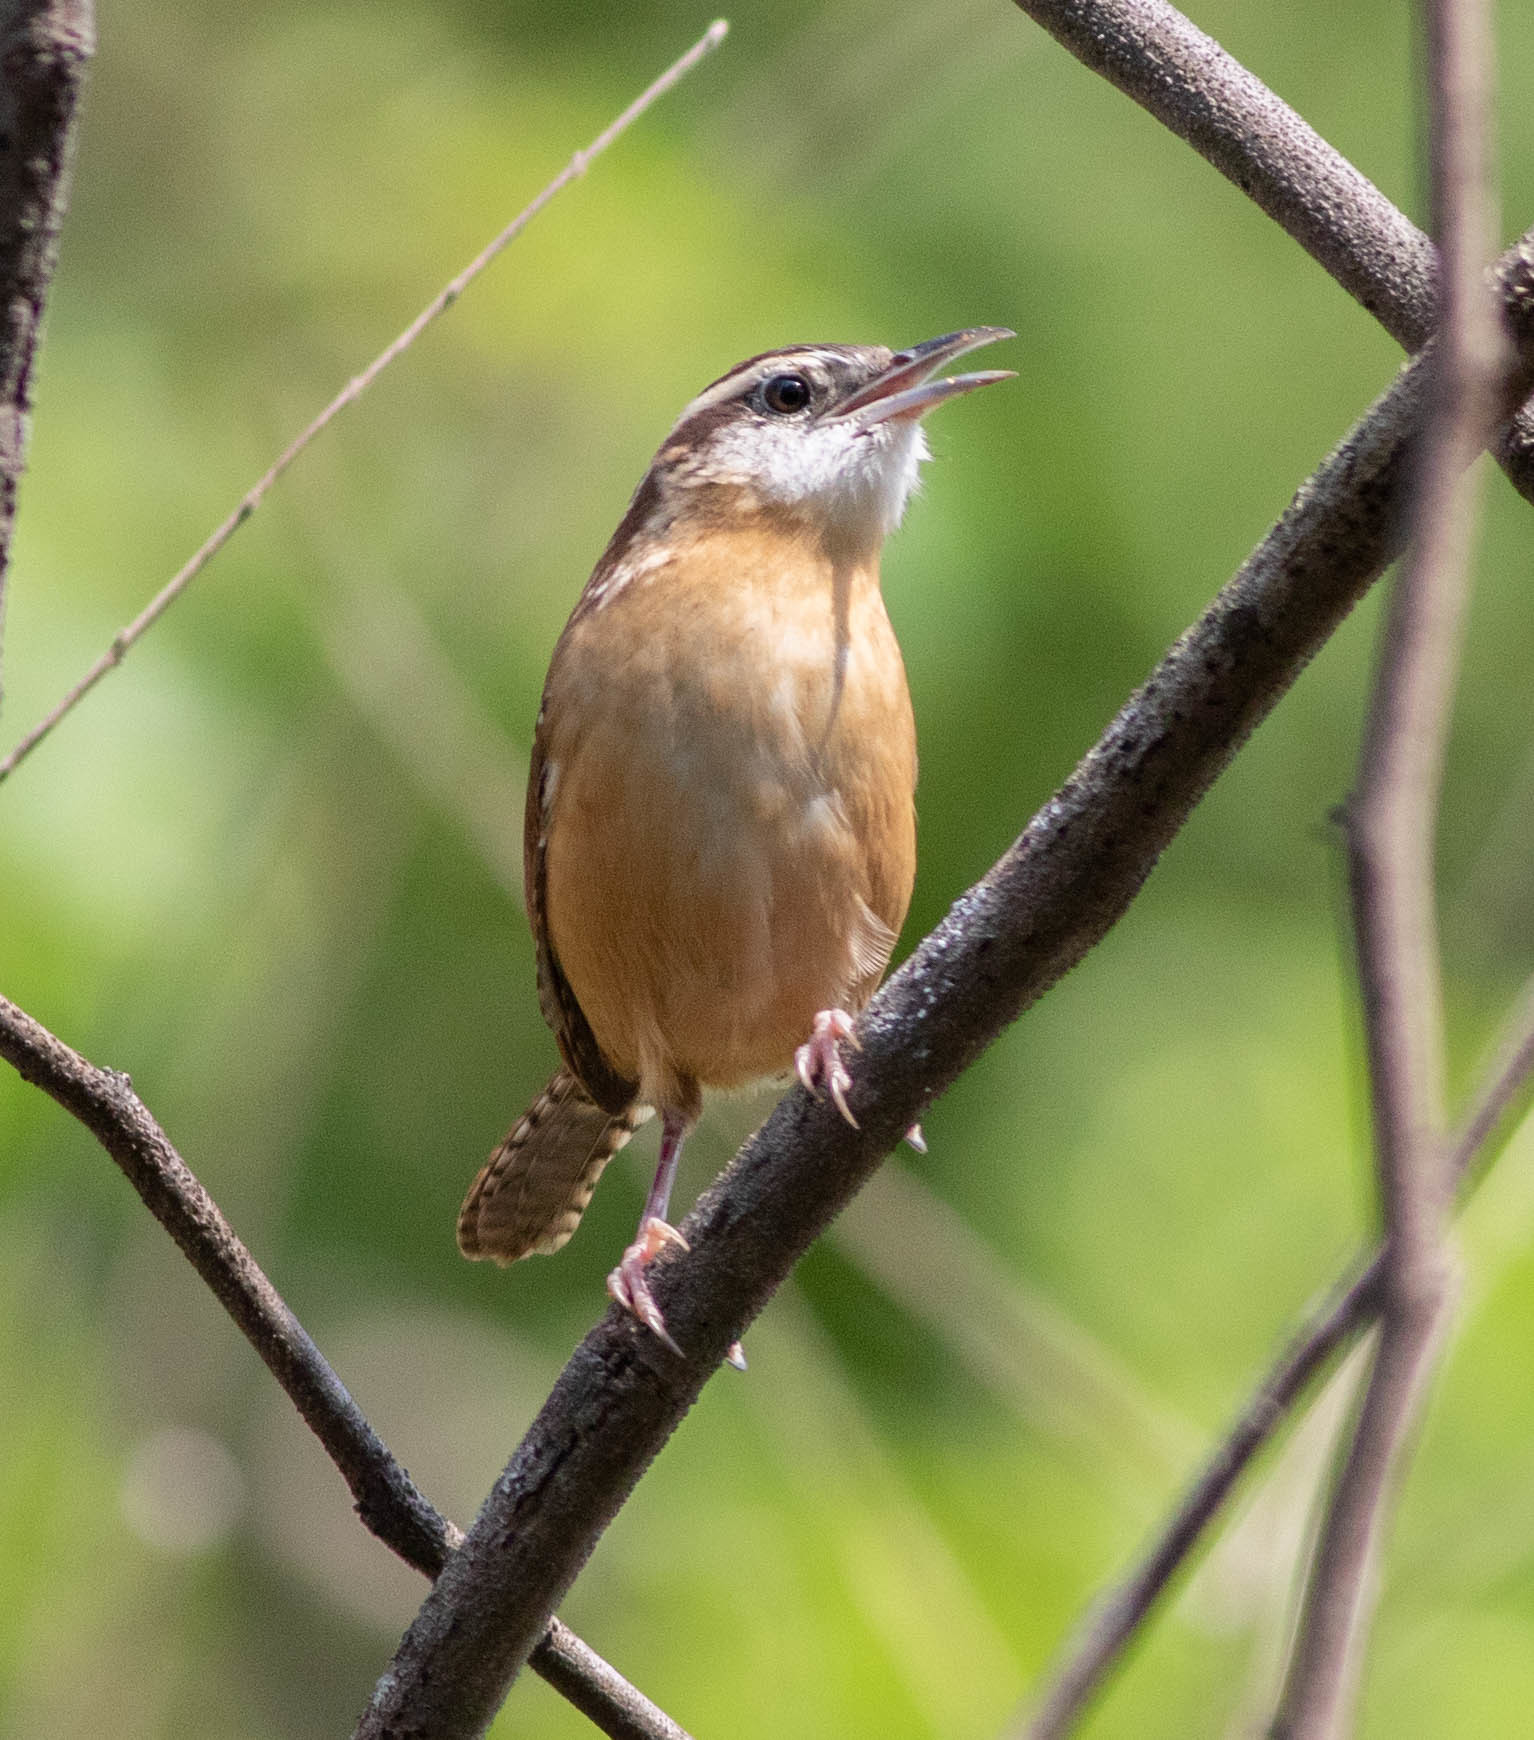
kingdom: Animalia
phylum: Chordata
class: Aves
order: Passeriformes
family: Troglodytidae
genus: Thryothorus
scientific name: Thryothorus ludovicianus
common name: Carolina wren
